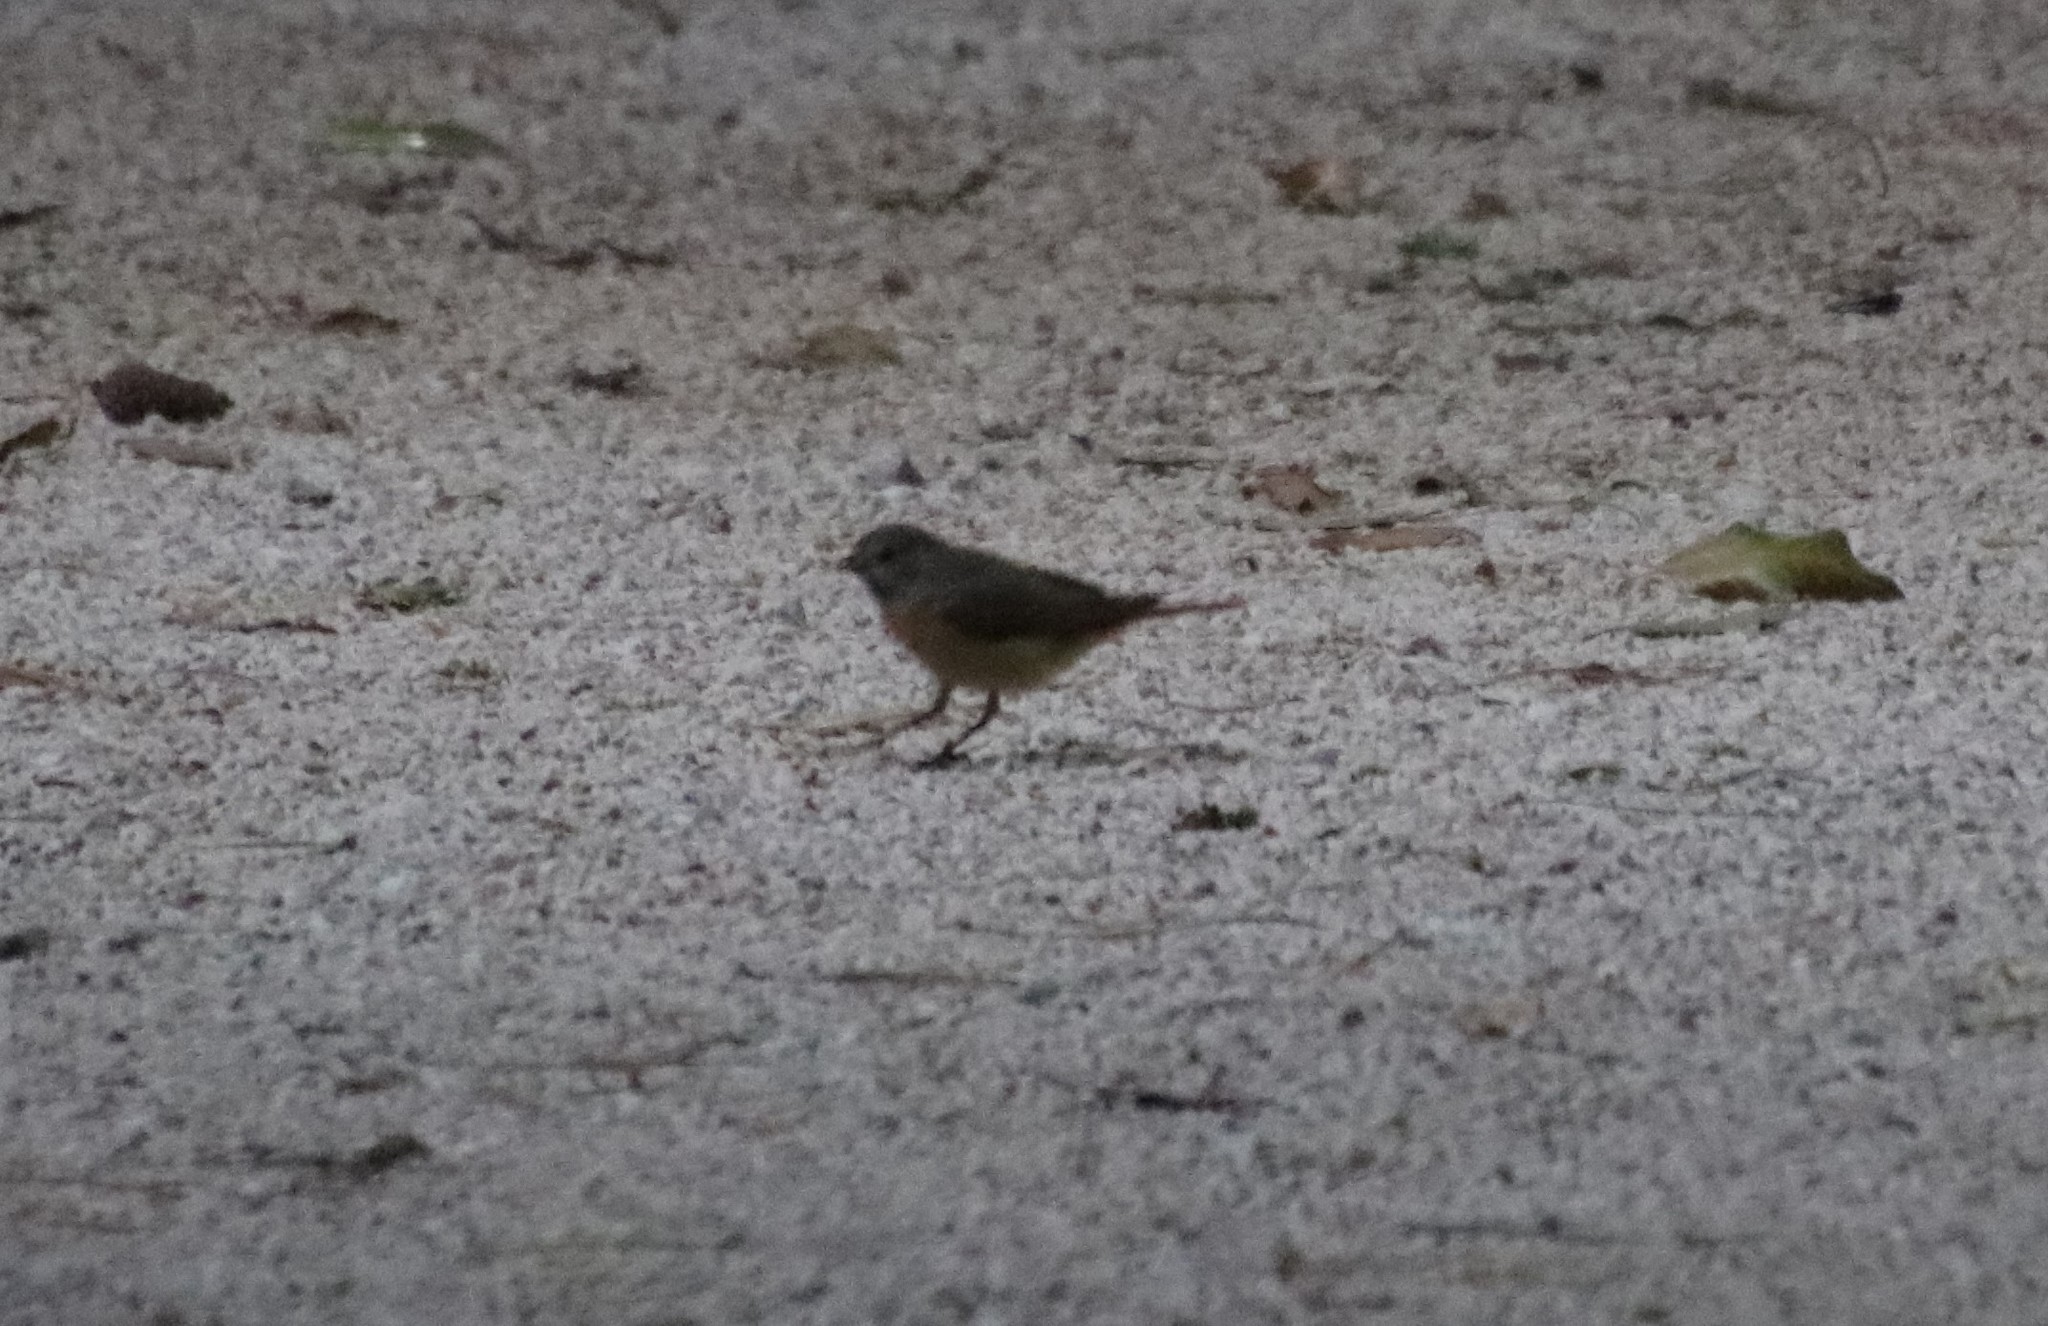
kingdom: Animalia
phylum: Chordata
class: Aves
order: Passeriformes
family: Muscicapidae
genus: Phoenicurus
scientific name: Phoenicurus phoenicurus
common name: Common redstart
